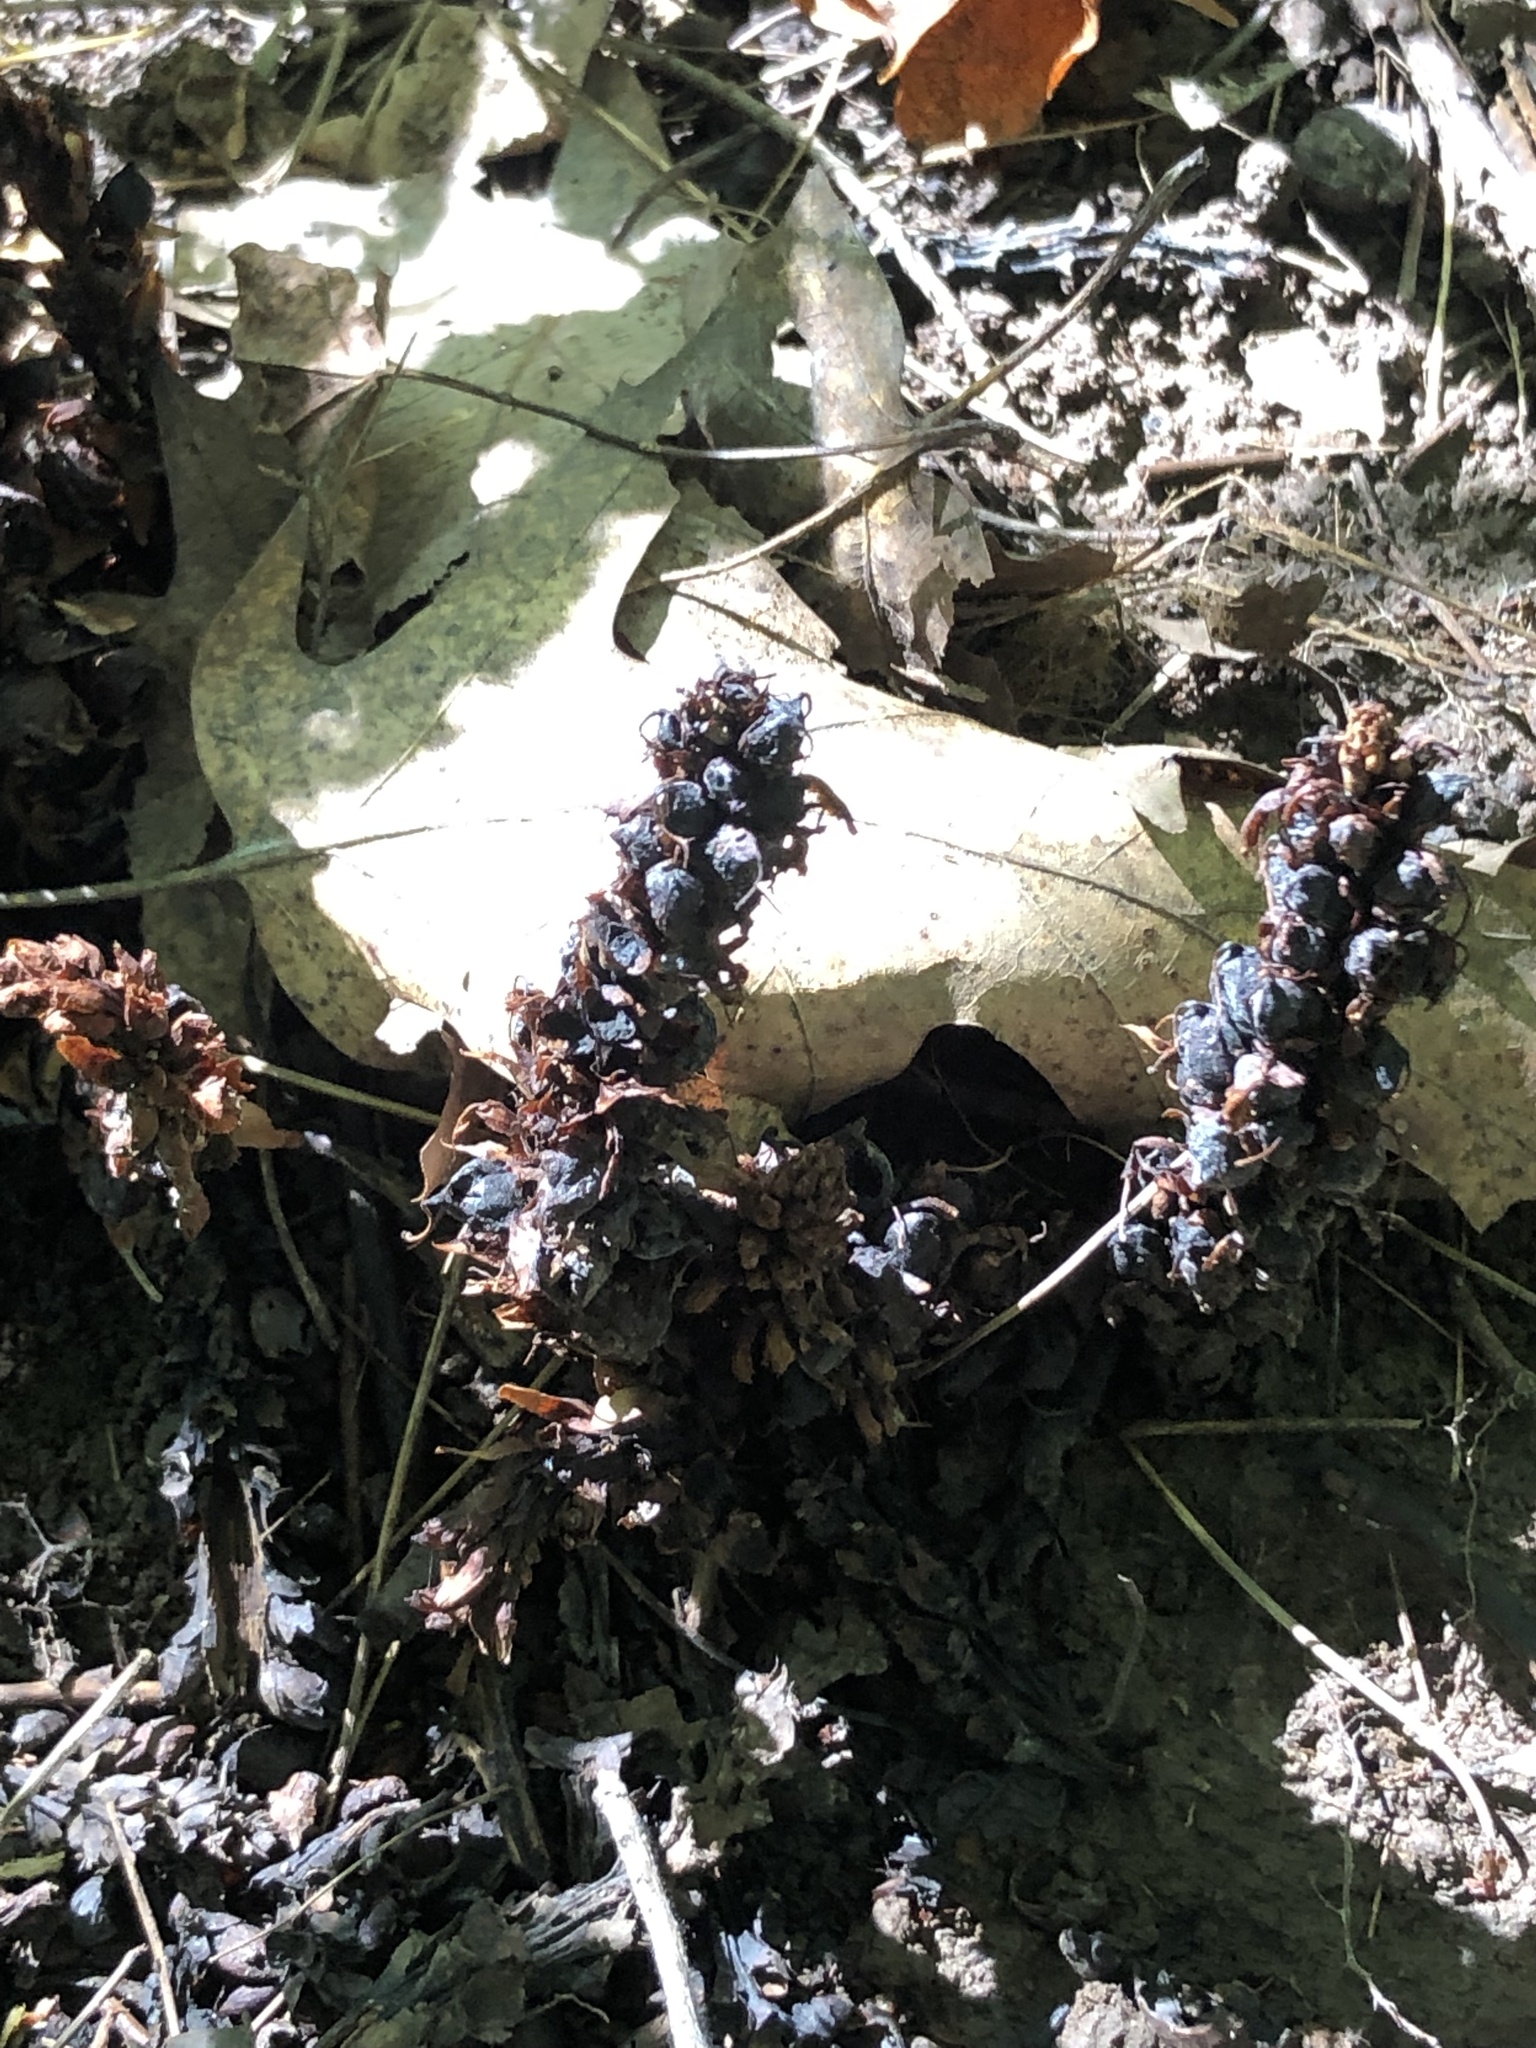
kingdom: Plantae
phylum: Tracheophyta
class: Magnoliopsida
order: Lamiales
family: Orobanchaceae
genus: Conopholis
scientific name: Conopholis americana
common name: American cancer-root
